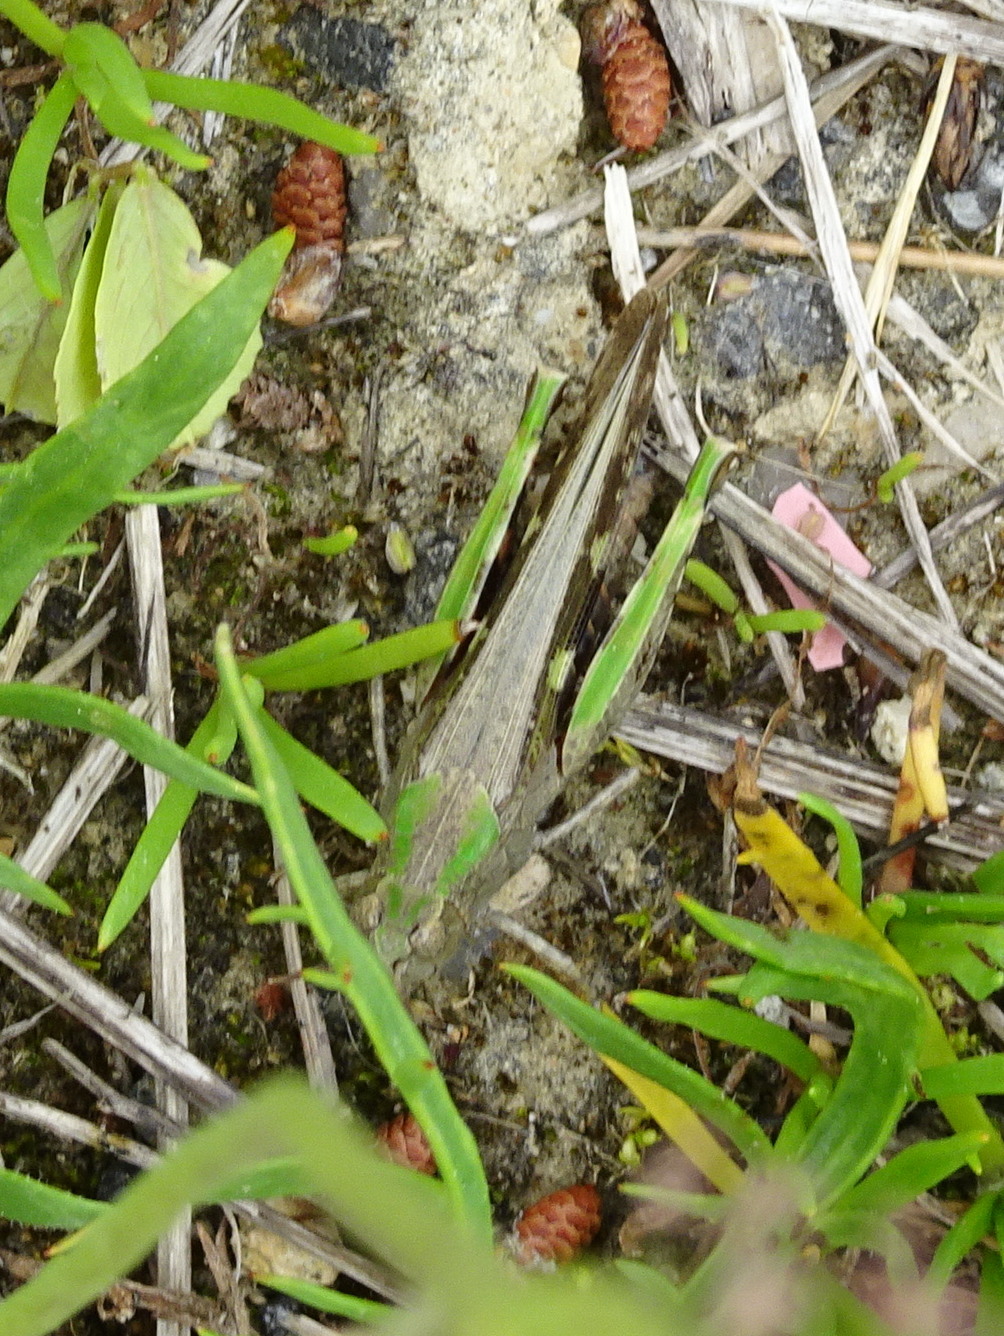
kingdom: Animalia
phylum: Arthropoda
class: Insecta
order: Orthoptera
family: Acrididae
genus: Aiolopus
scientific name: Aiolopus strepens
